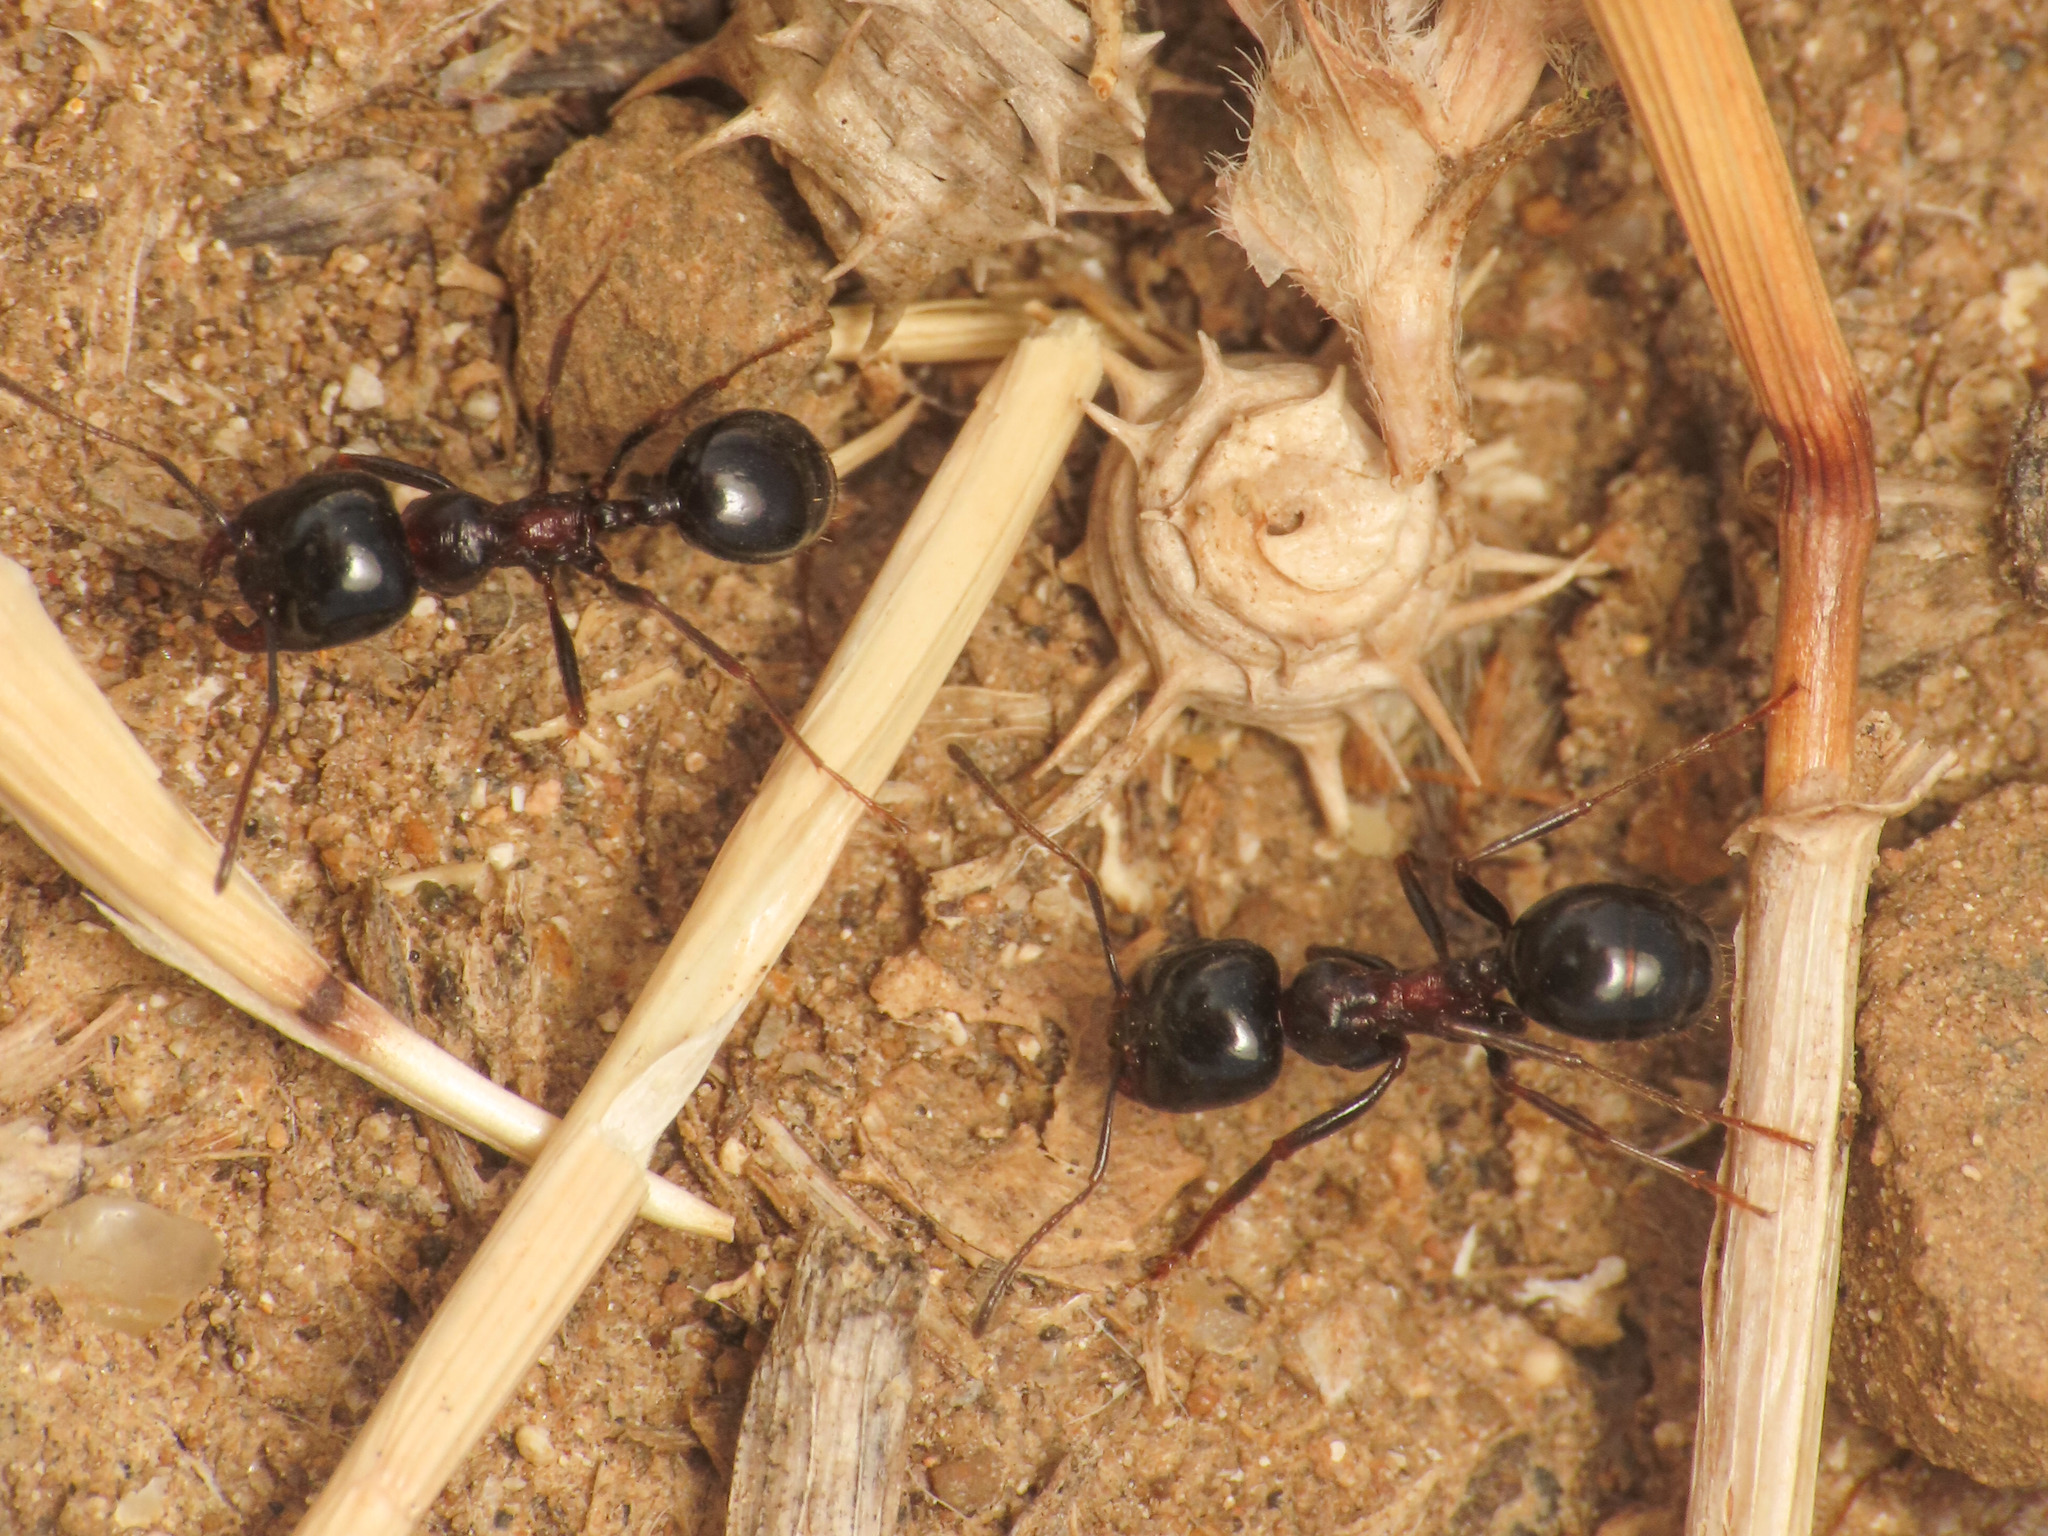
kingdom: Animalia
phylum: Arthropoda
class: Insecta
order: Hymenoptera
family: Formicidae
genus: Messor
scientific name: Messor wasmanni
